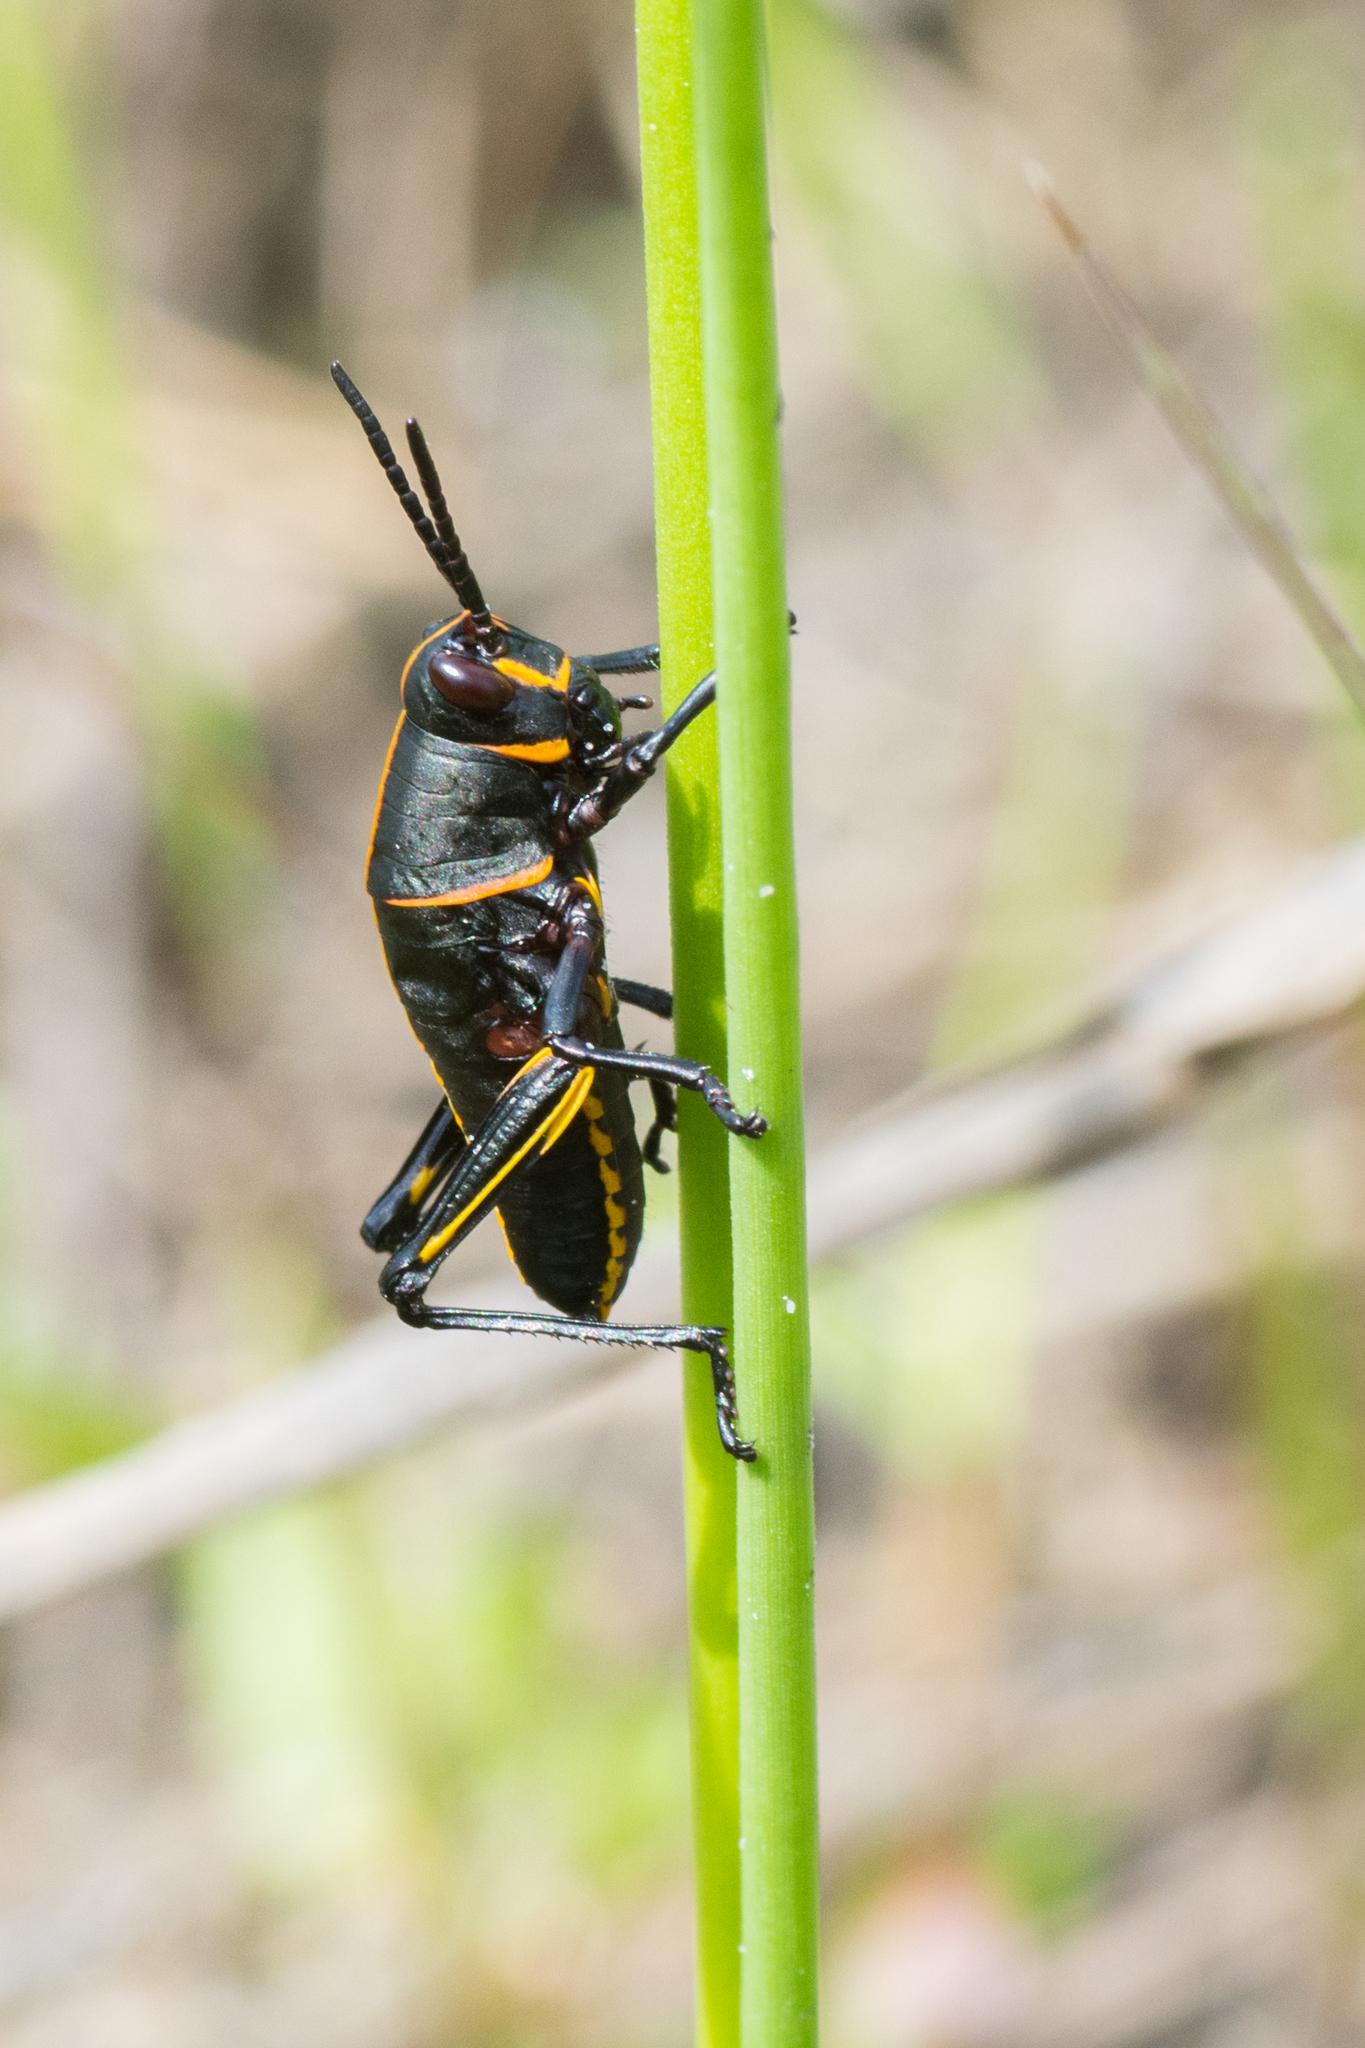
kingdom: Animalia
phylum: Arthropoda
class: Insecta
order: Orthoptera
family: Romaleidae
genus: Romalea
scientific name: Romalea microptera
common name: Eastern lubber grasshopper
